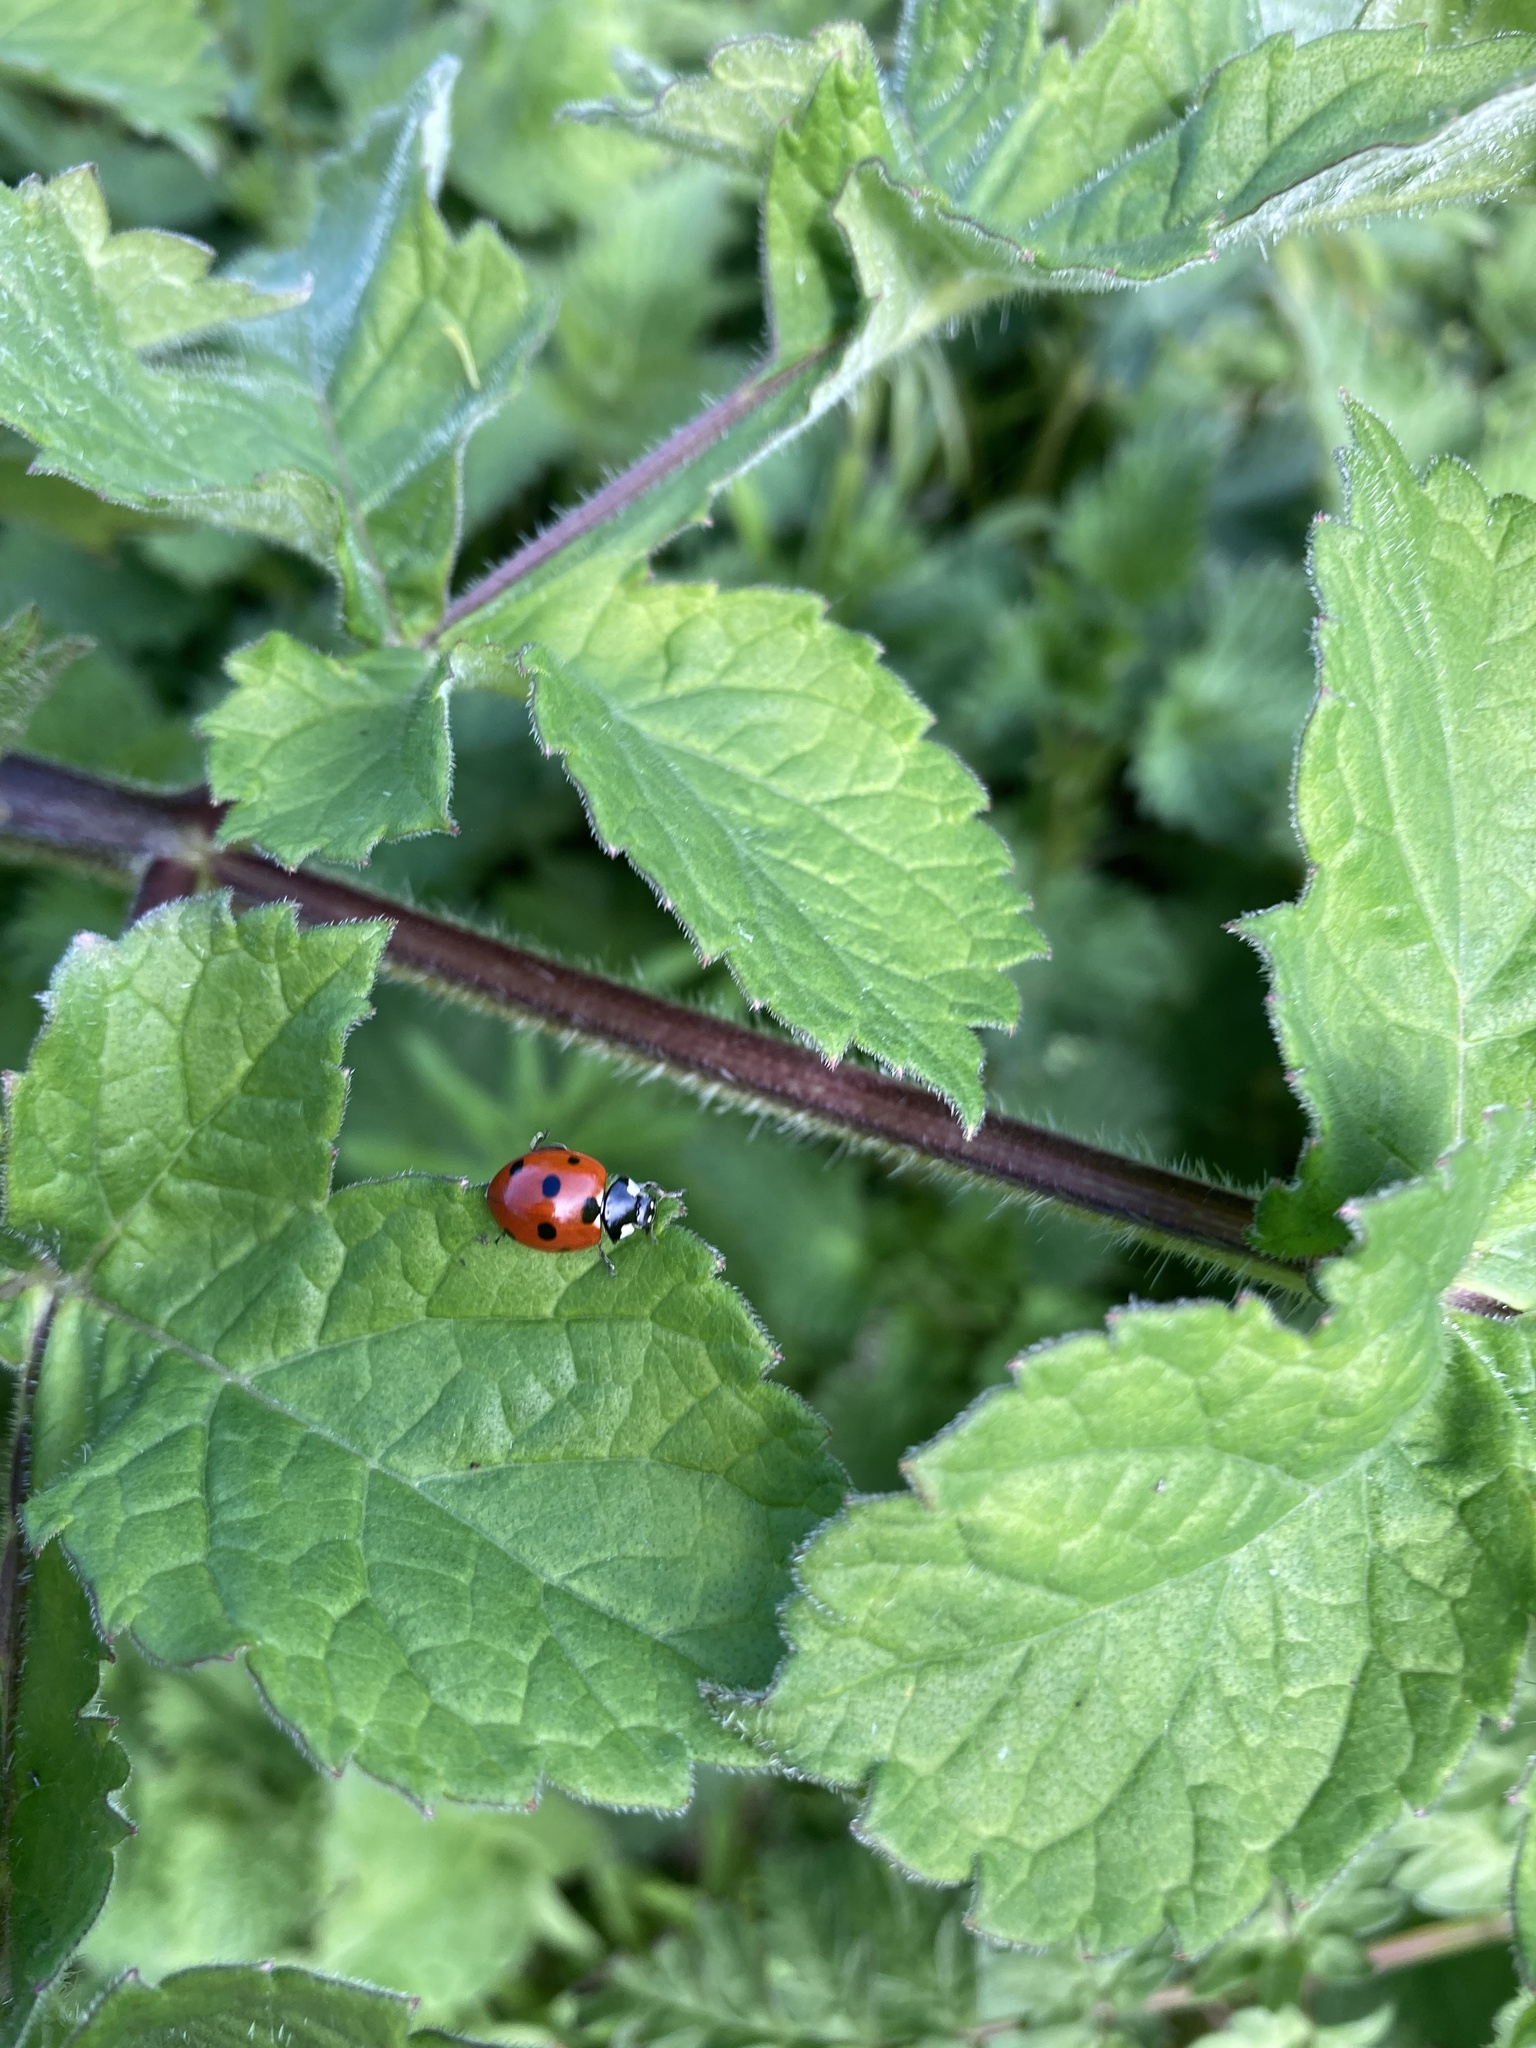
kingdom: Animalia
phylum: Arthropoda
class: Insecta
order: Coleoptera
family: Coccinellidae
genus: Coccinella
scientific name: Coccinella septempunctata
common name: Sevenspotted lady beetle
